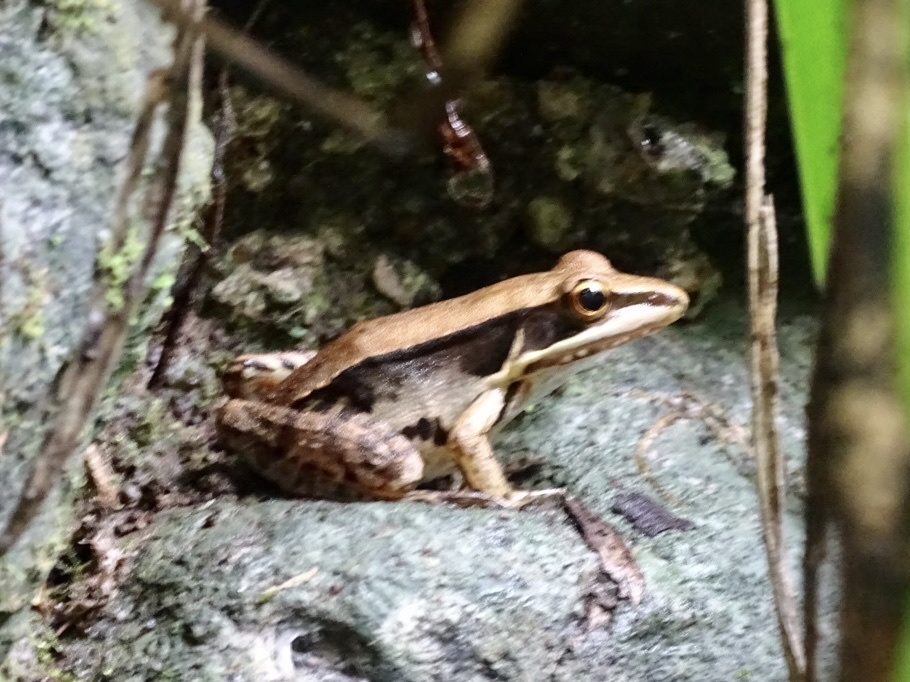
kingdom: Animalia
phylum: Chordata
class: Amphibia
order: Anura
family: Ranidae
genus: Sylvirana
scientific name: Sylvirana guentheri
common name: Guenther's amoy frog
